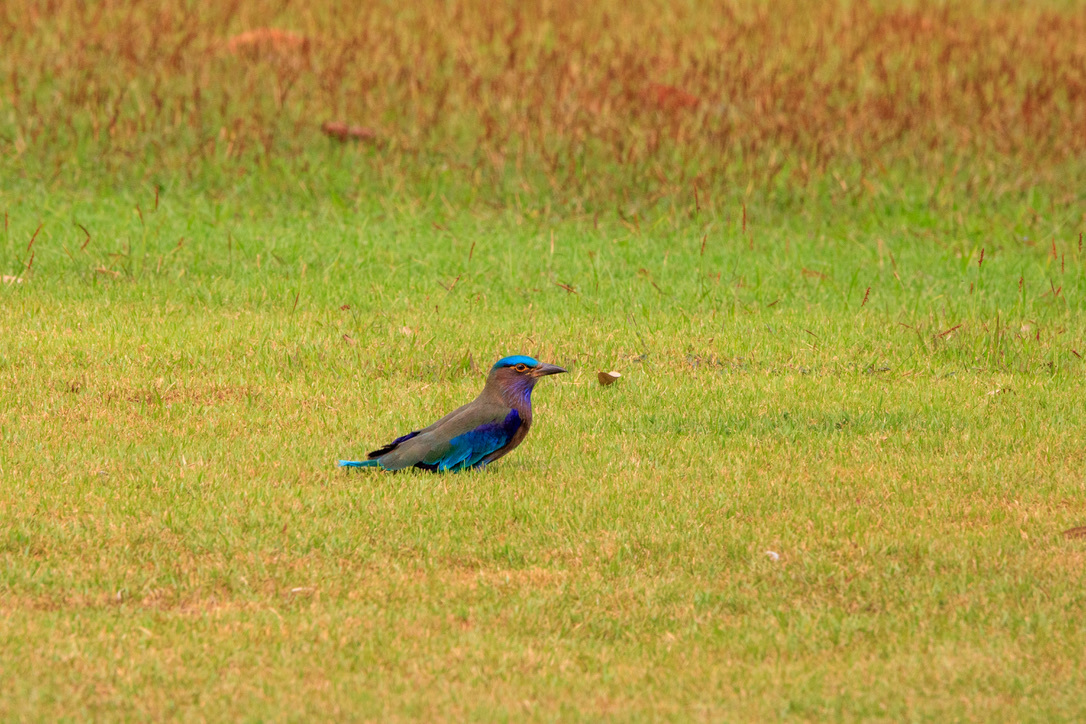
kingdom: Animalia
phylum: Chordata
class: Aves
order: Coraciiformes
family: Coraciidae
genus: Coracias
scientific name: Coracias affinis
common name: Indochinese roller
